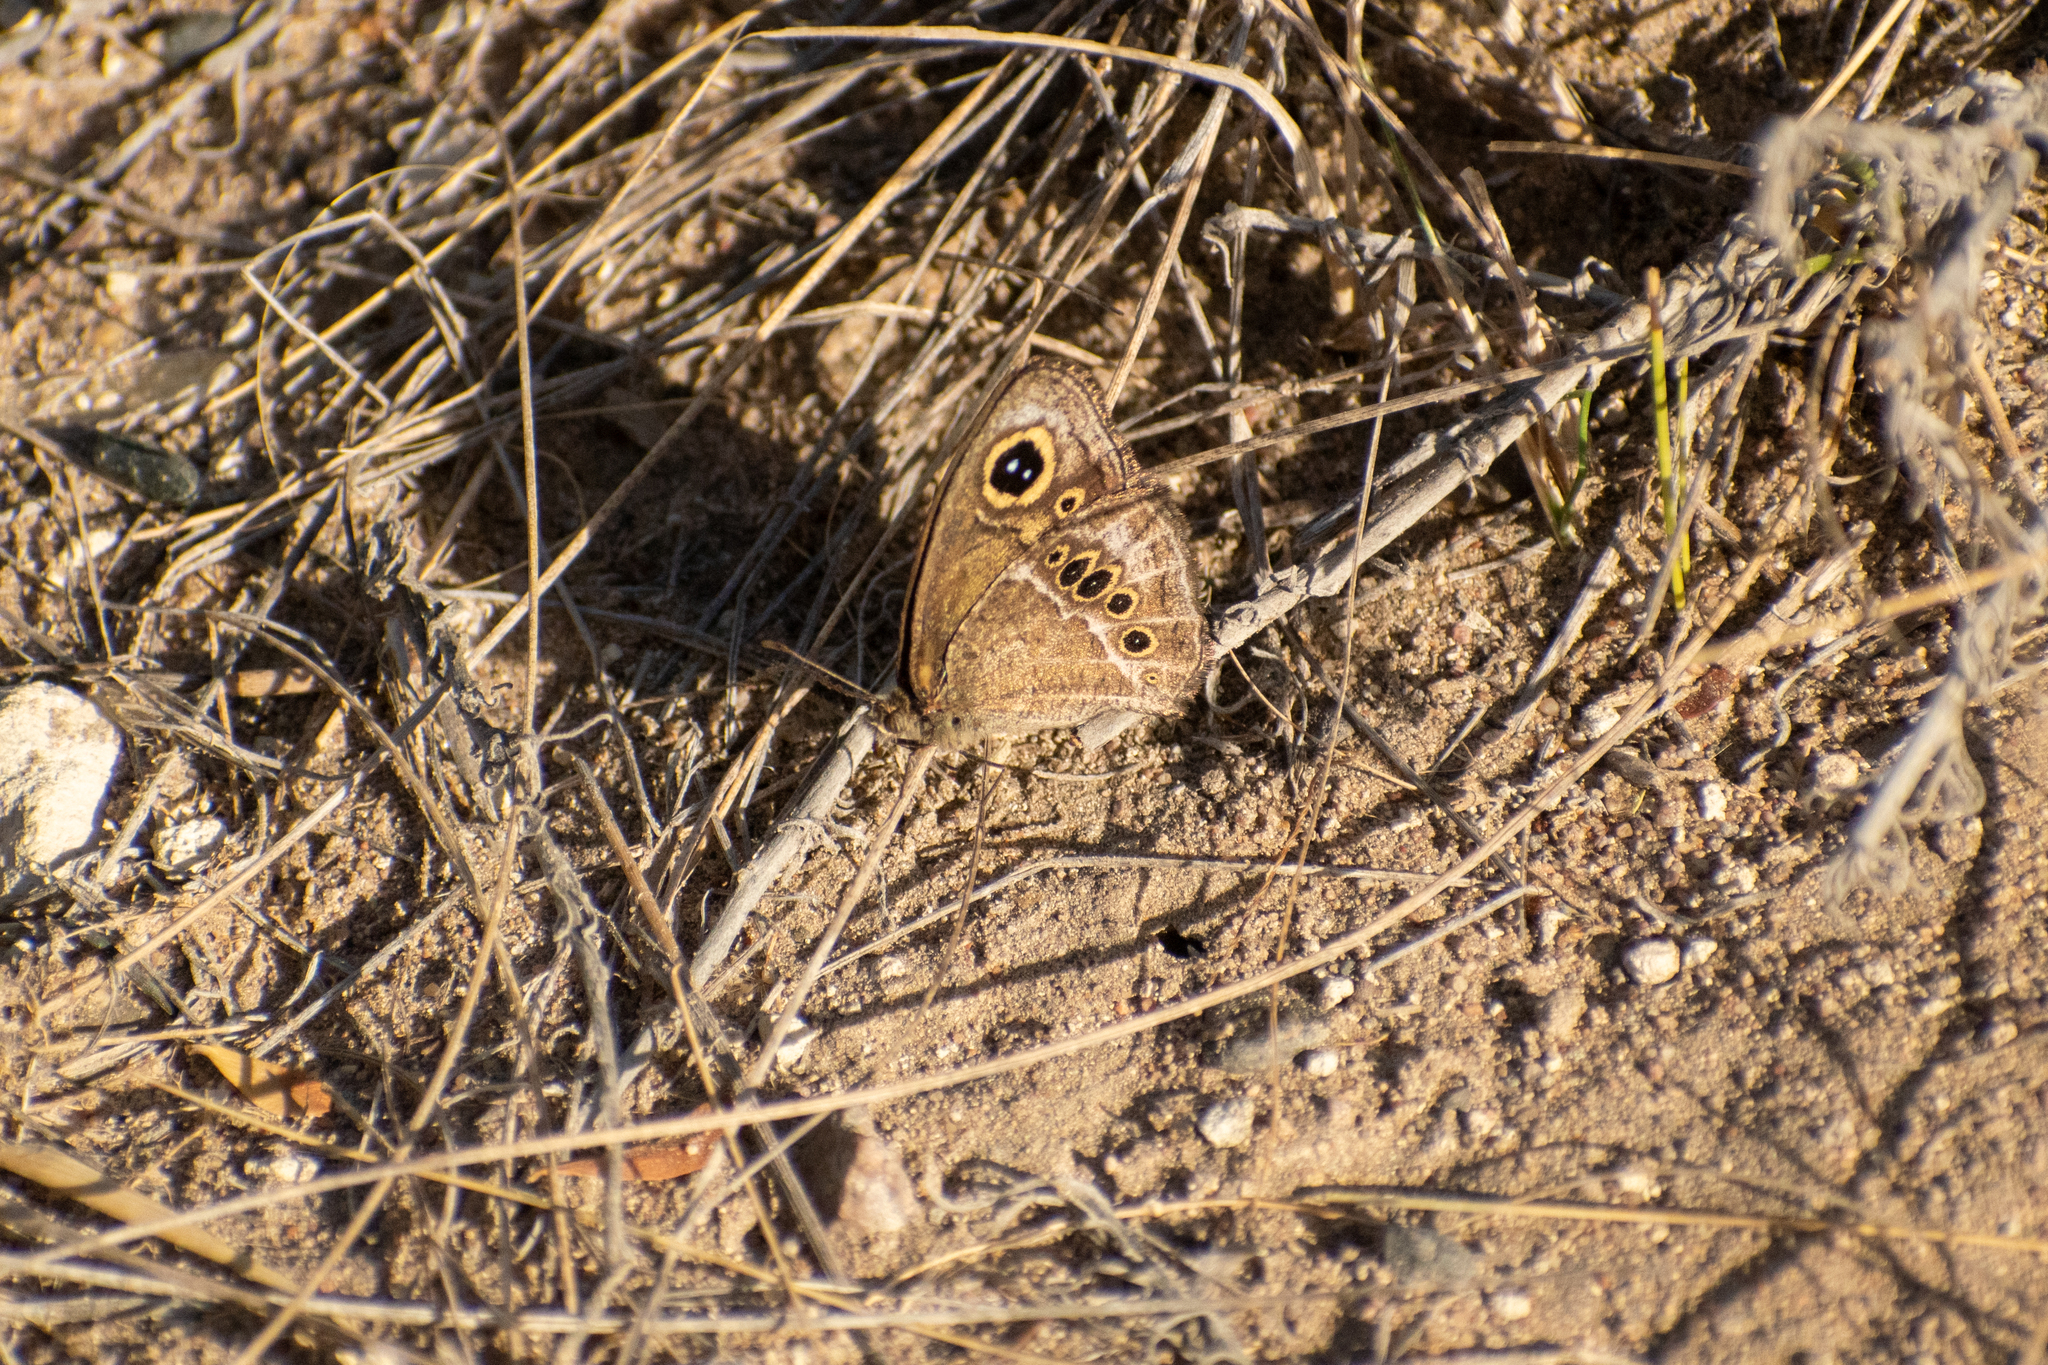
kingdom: Animalia
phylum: Arthropoda
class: Insecta
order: Lepidoptera
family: Nymphalidae
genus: Pampasatyrus
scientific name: Pampasatyrus gyrtone
